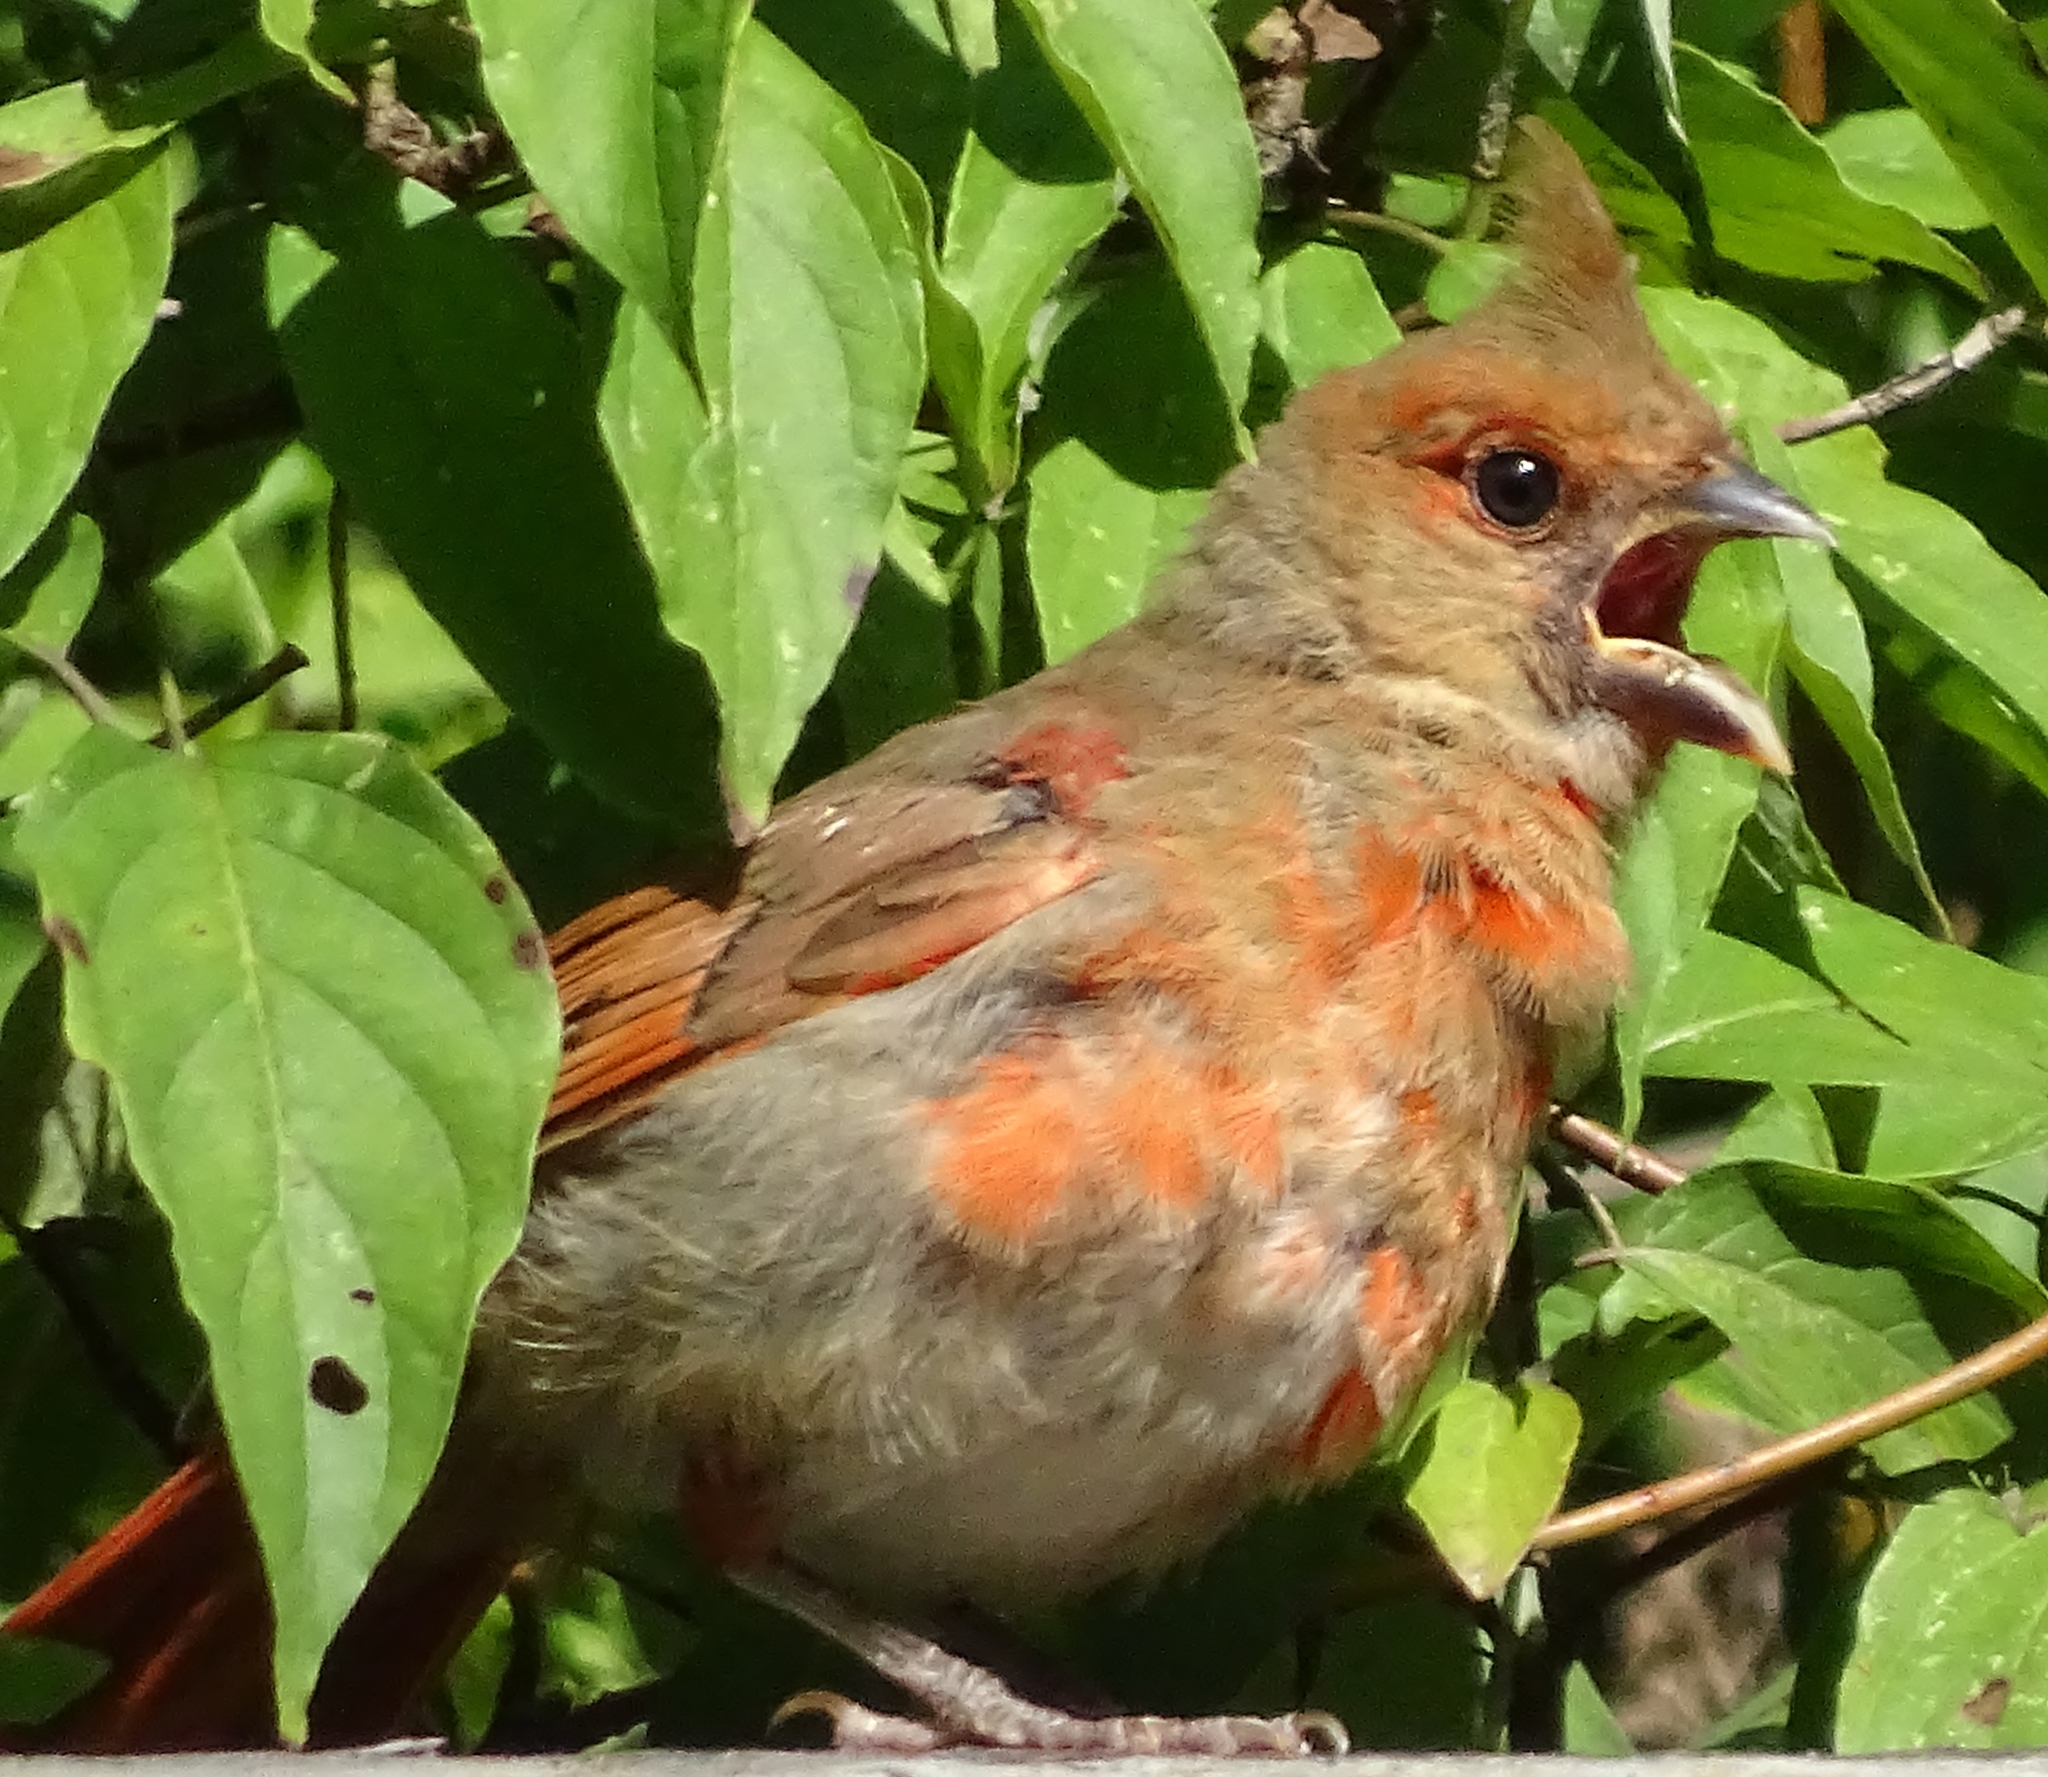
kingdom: Animalia
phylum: Chordata
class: Aves
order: Passeriformes
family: Cardinalidae
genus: Cardinalis
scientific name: Cardinalis cardinalis
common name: Northern cardinal
